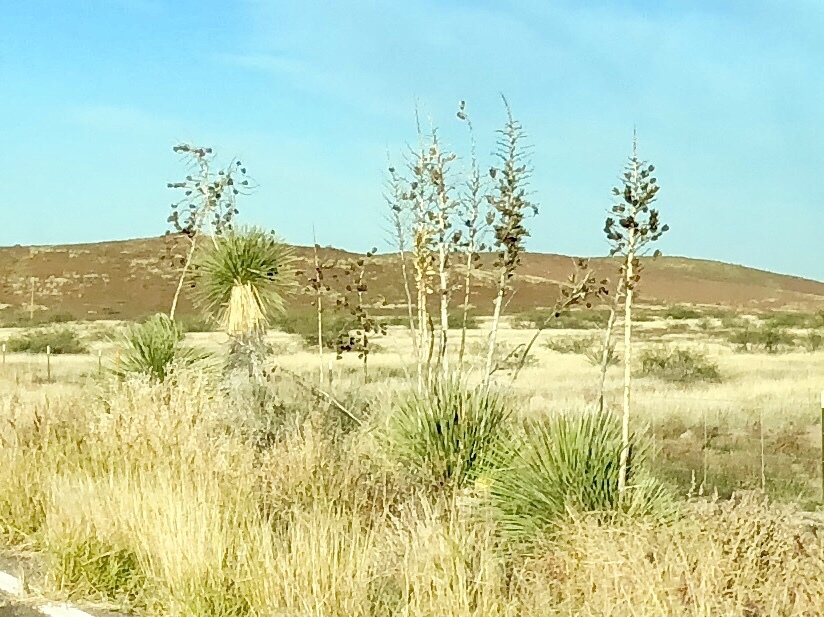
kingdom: Plantae
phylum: Tracheophyta
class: Liliopsida
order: Asparagales
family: Asparagaceae
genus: Yucca
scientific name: Yucca elata
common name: Palmella
